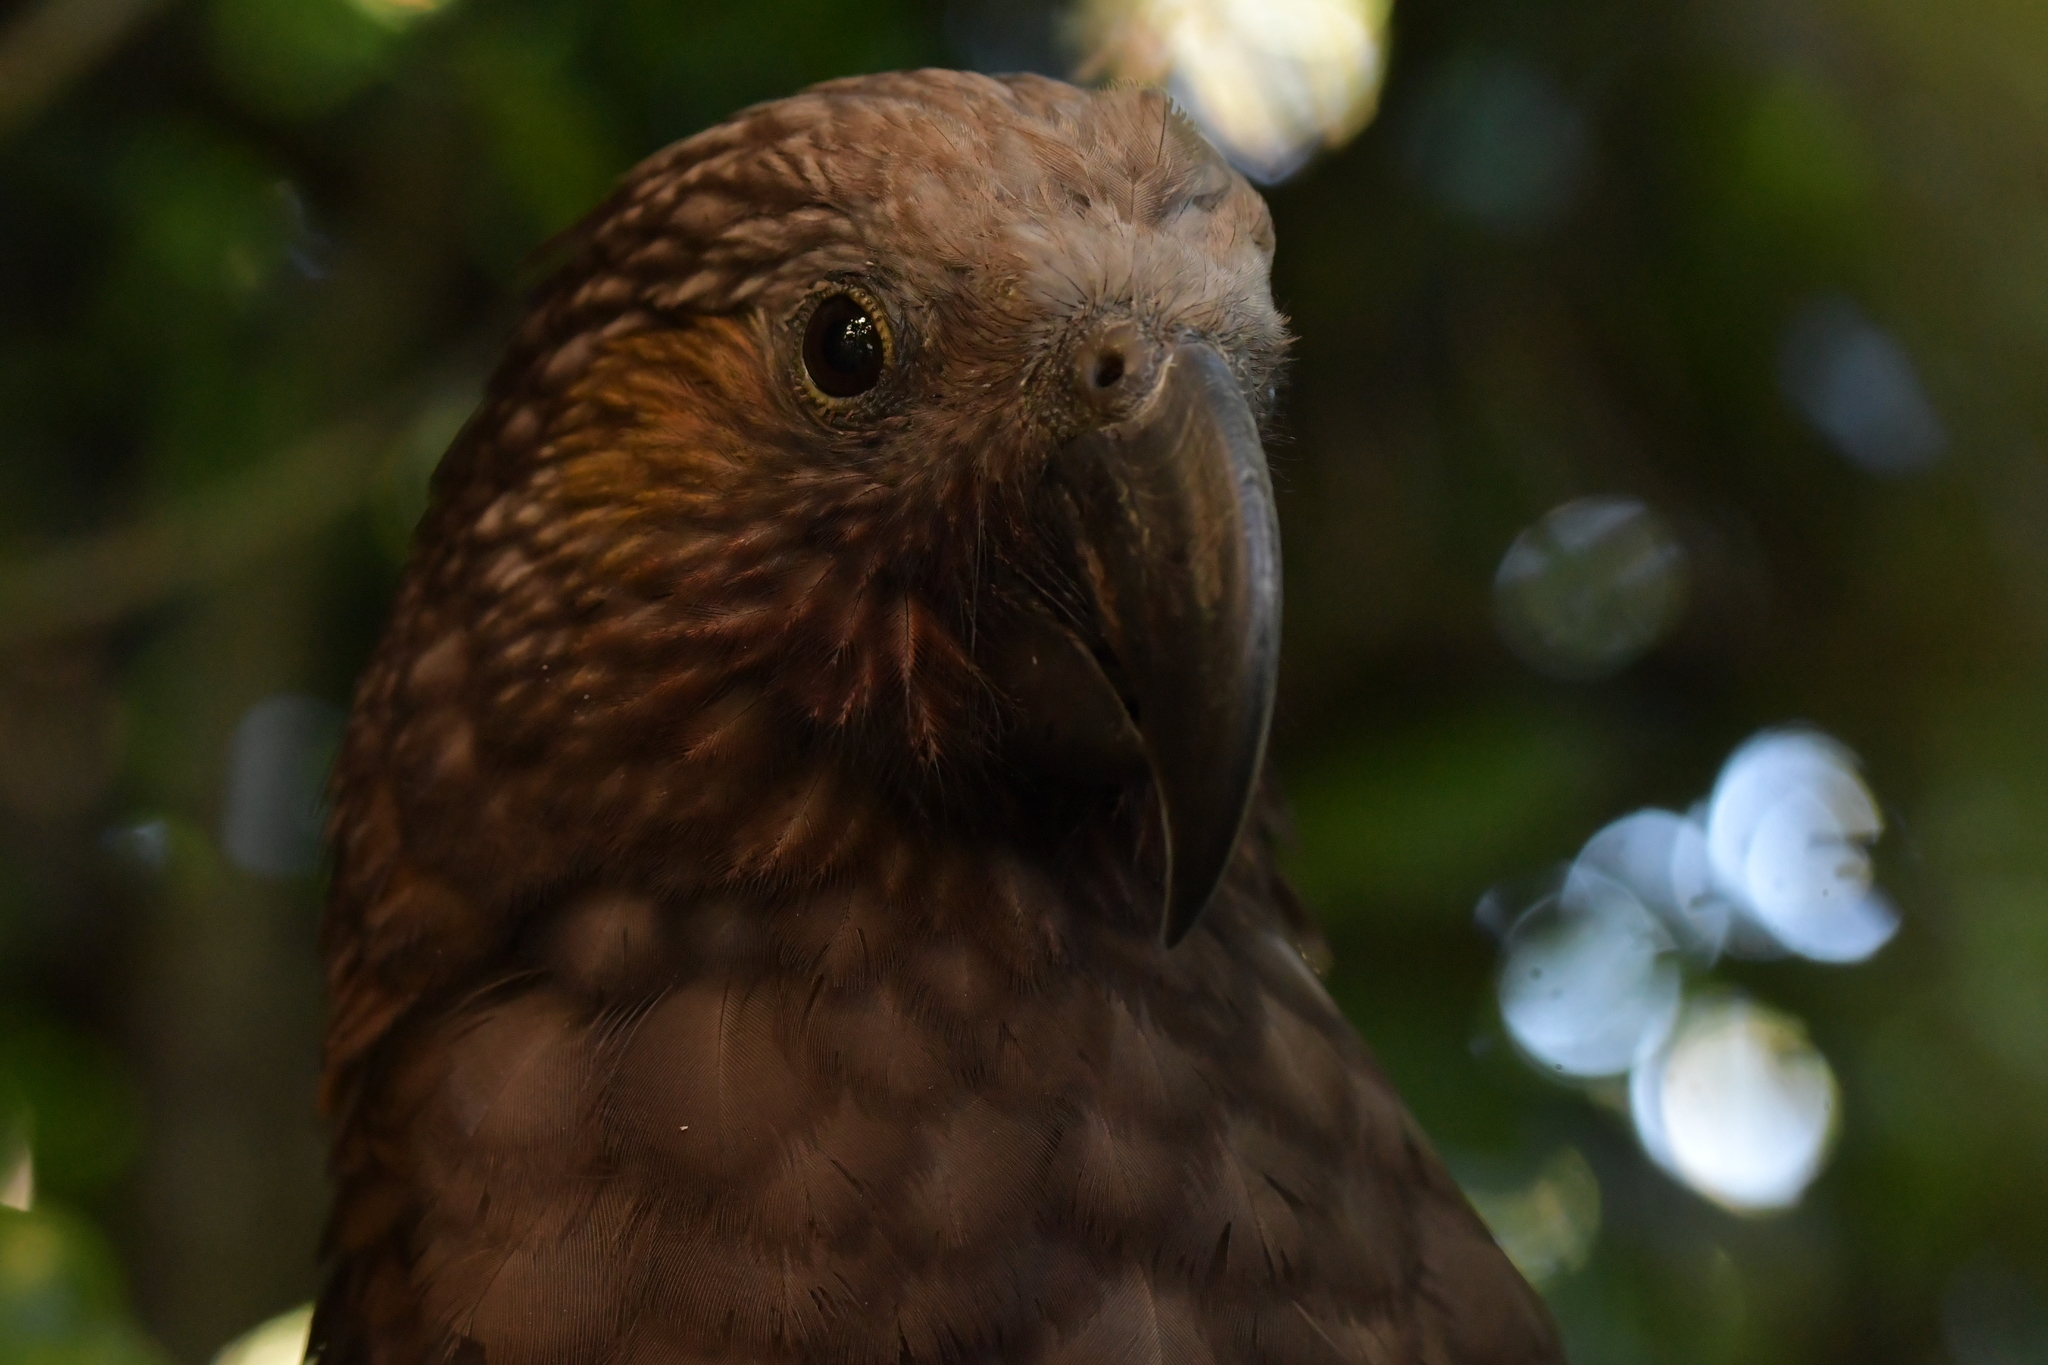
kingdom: Animalia
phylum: Chordata
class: Aves
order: Psittaciformes
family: Psittacidae
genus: Nestor
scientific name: Nestor meridionalis
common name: New zealand kaka
